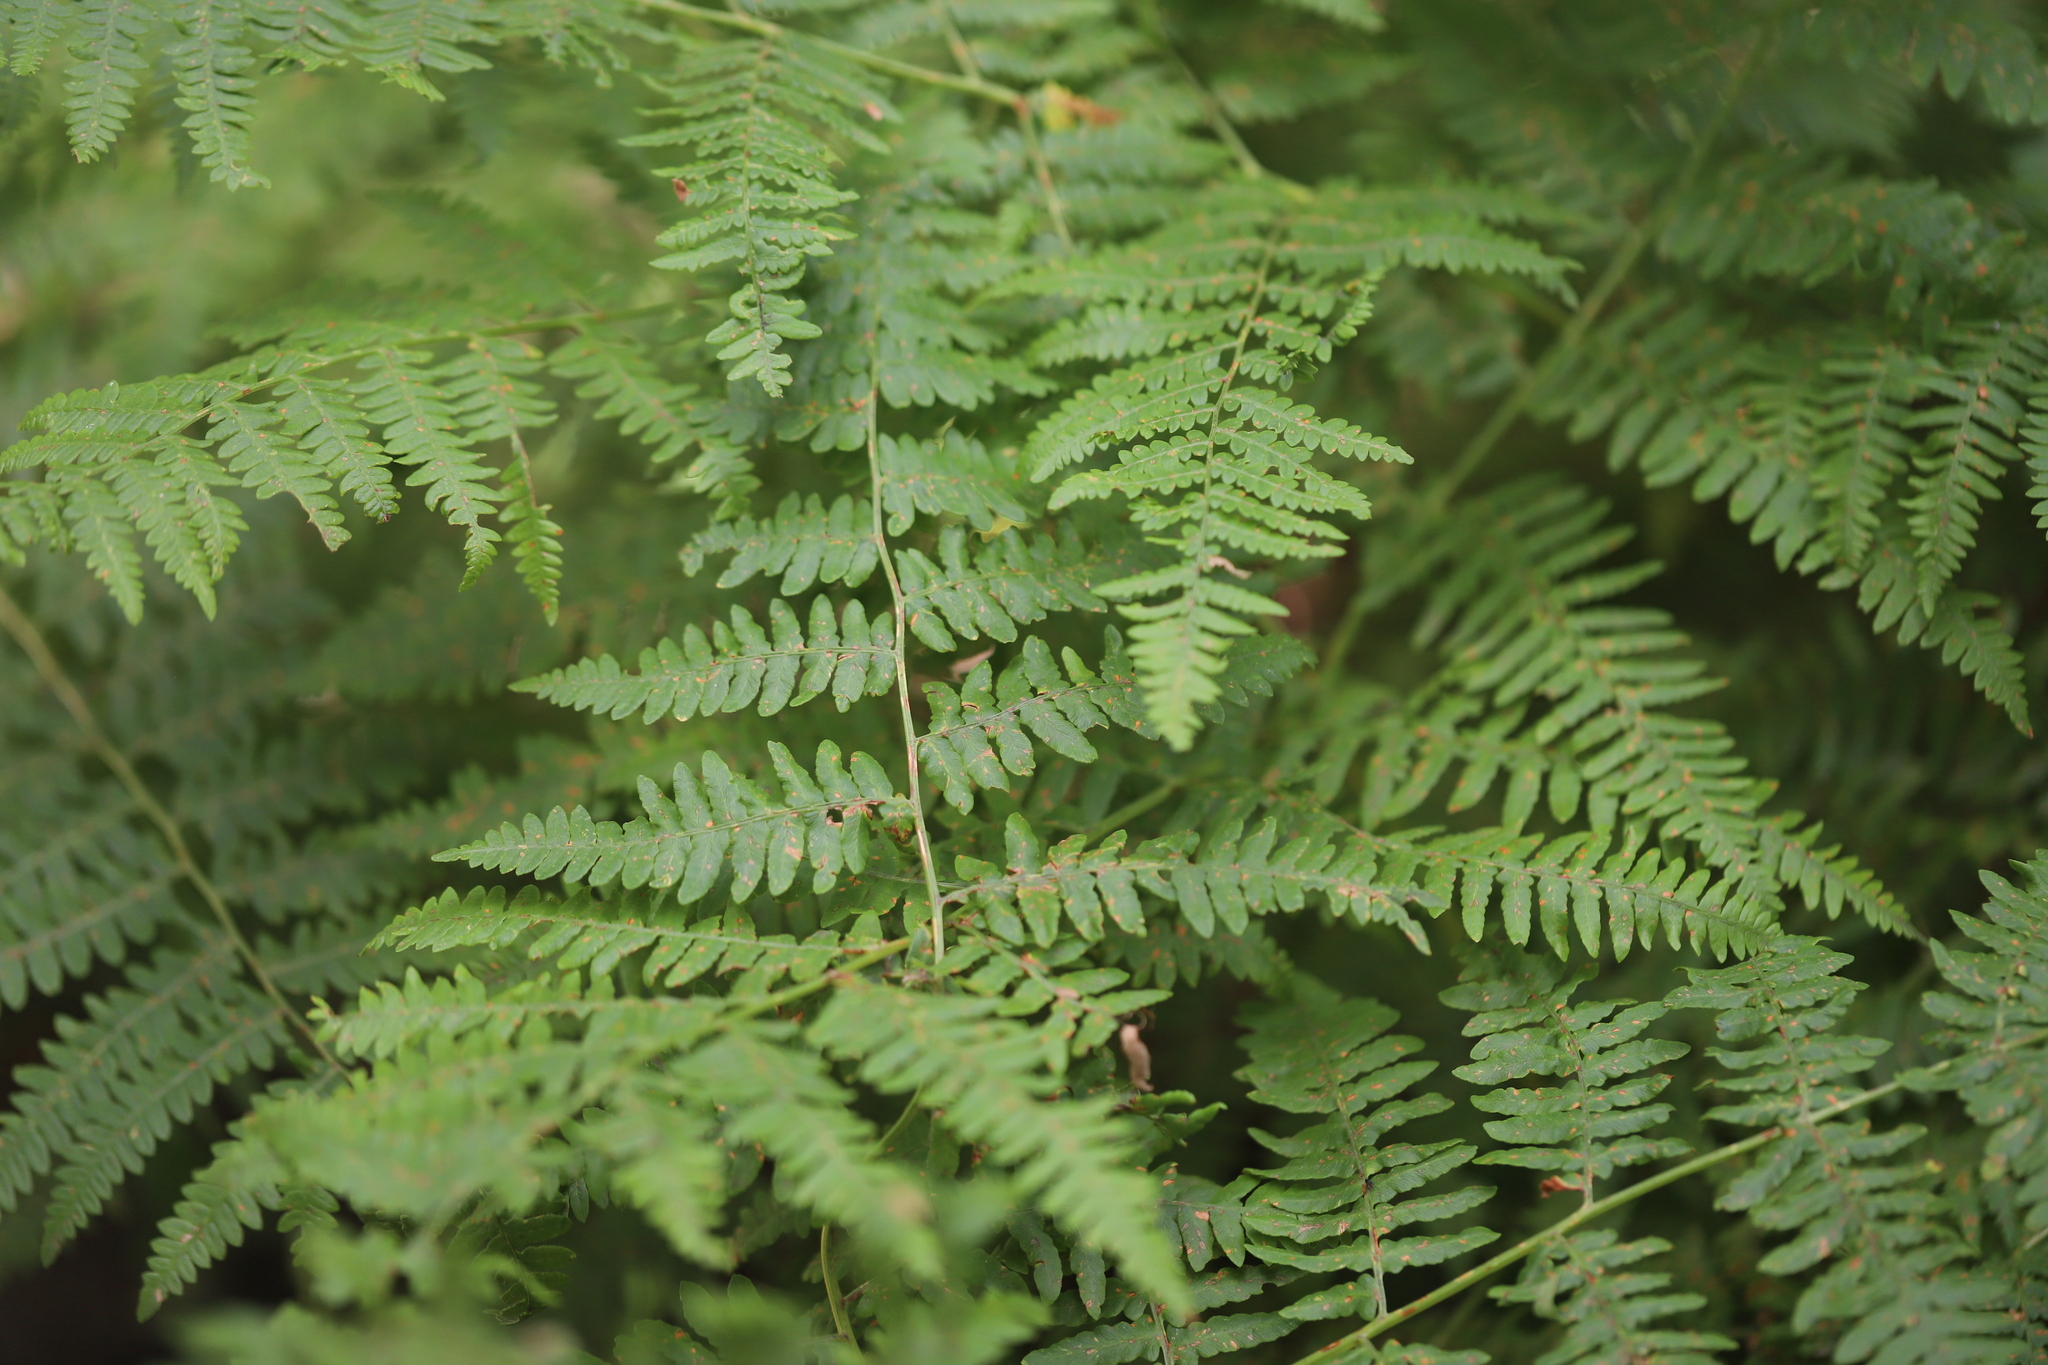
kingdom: Plantae
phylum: Tracheophyta
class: Polypodiopsida
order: Polypodiales
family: Dennstaedtiaceae
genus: Pteridium
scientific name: Pteridium aquilinum
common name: Bracken
